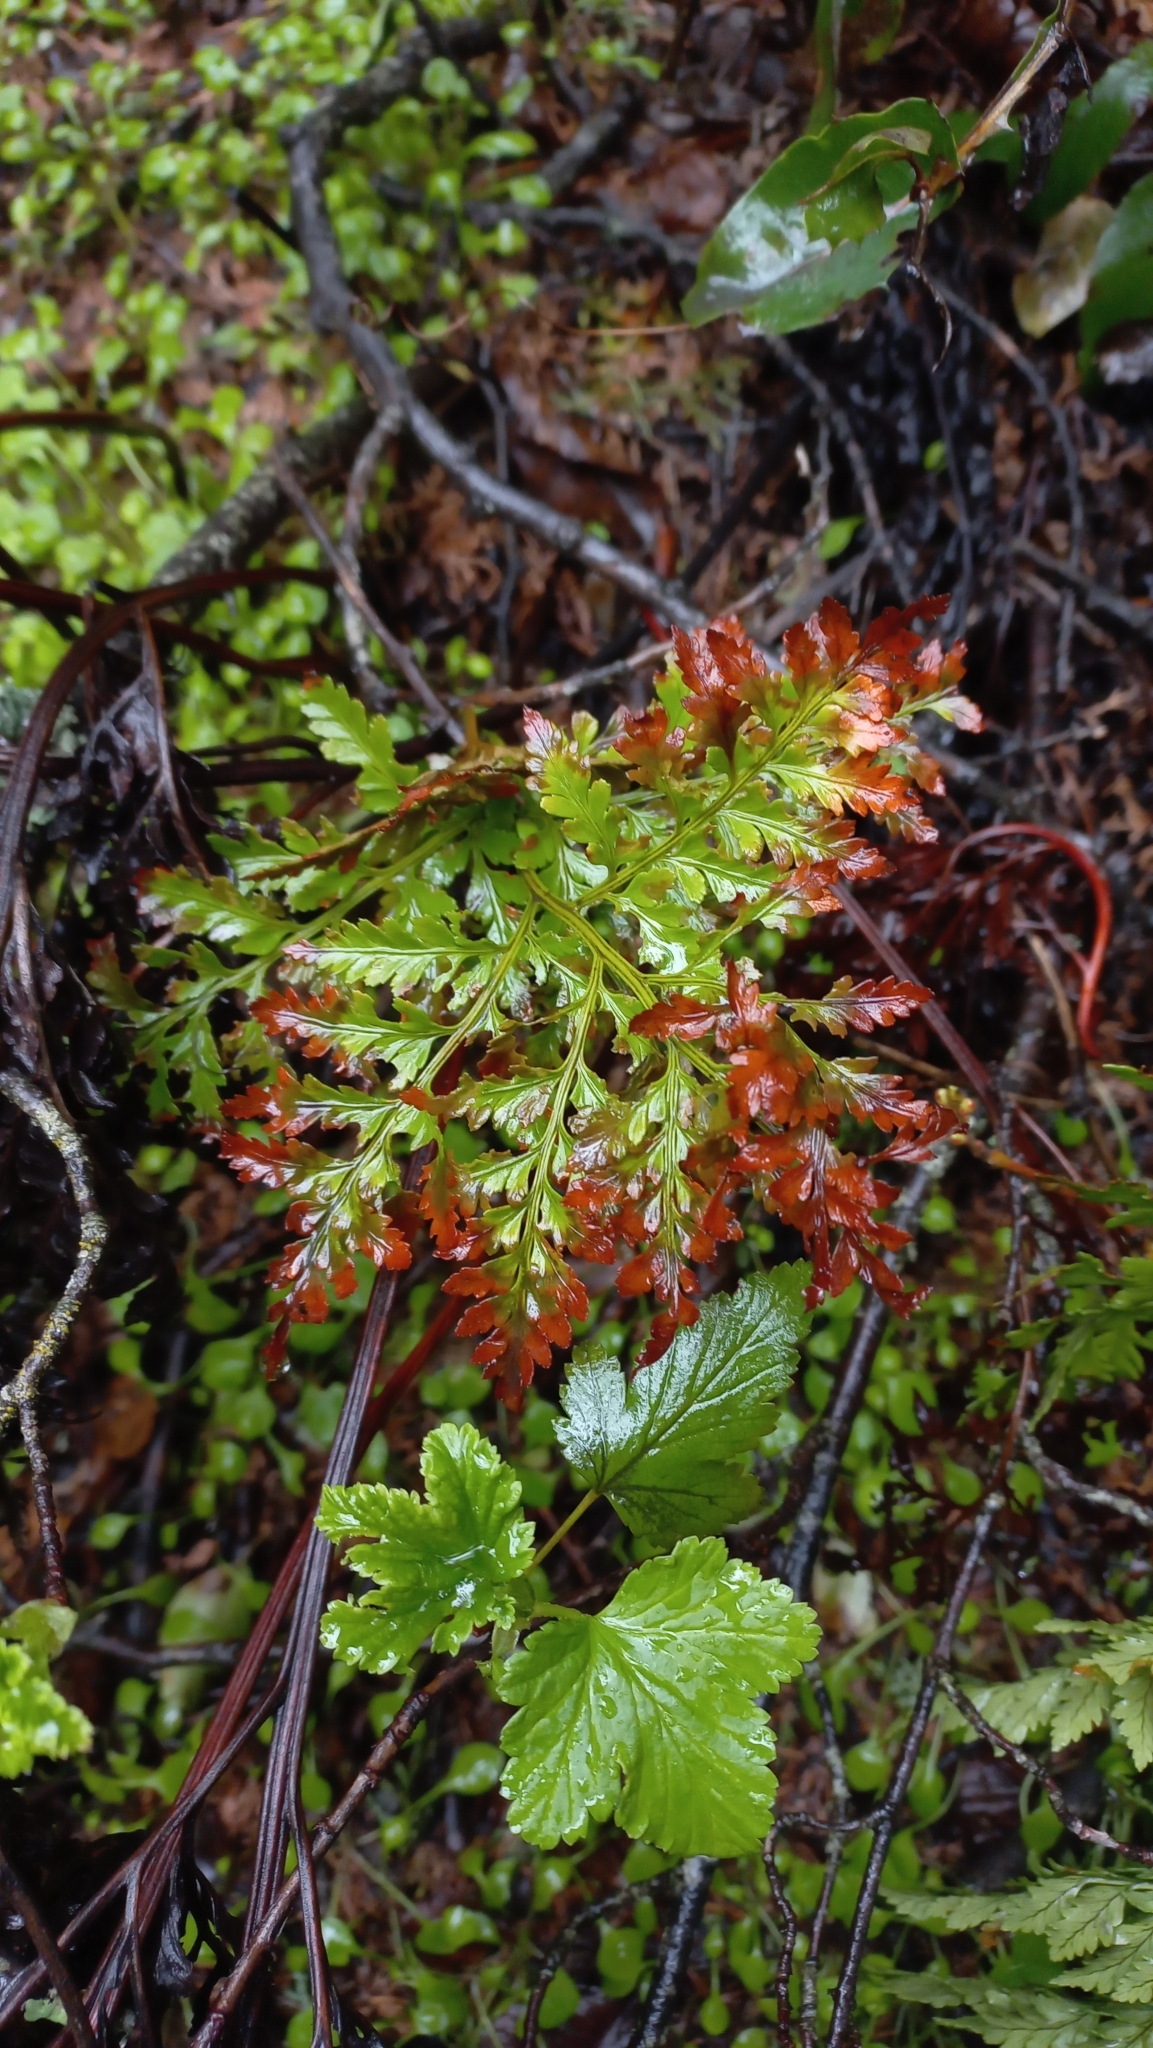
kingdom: Plantae
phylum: Tracheophyta
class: Polypodiopsida
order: Polypodiales
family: Dryopteridaceae
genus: Rumohra
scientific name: Rumohra adiantiformis
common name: Leather fern
